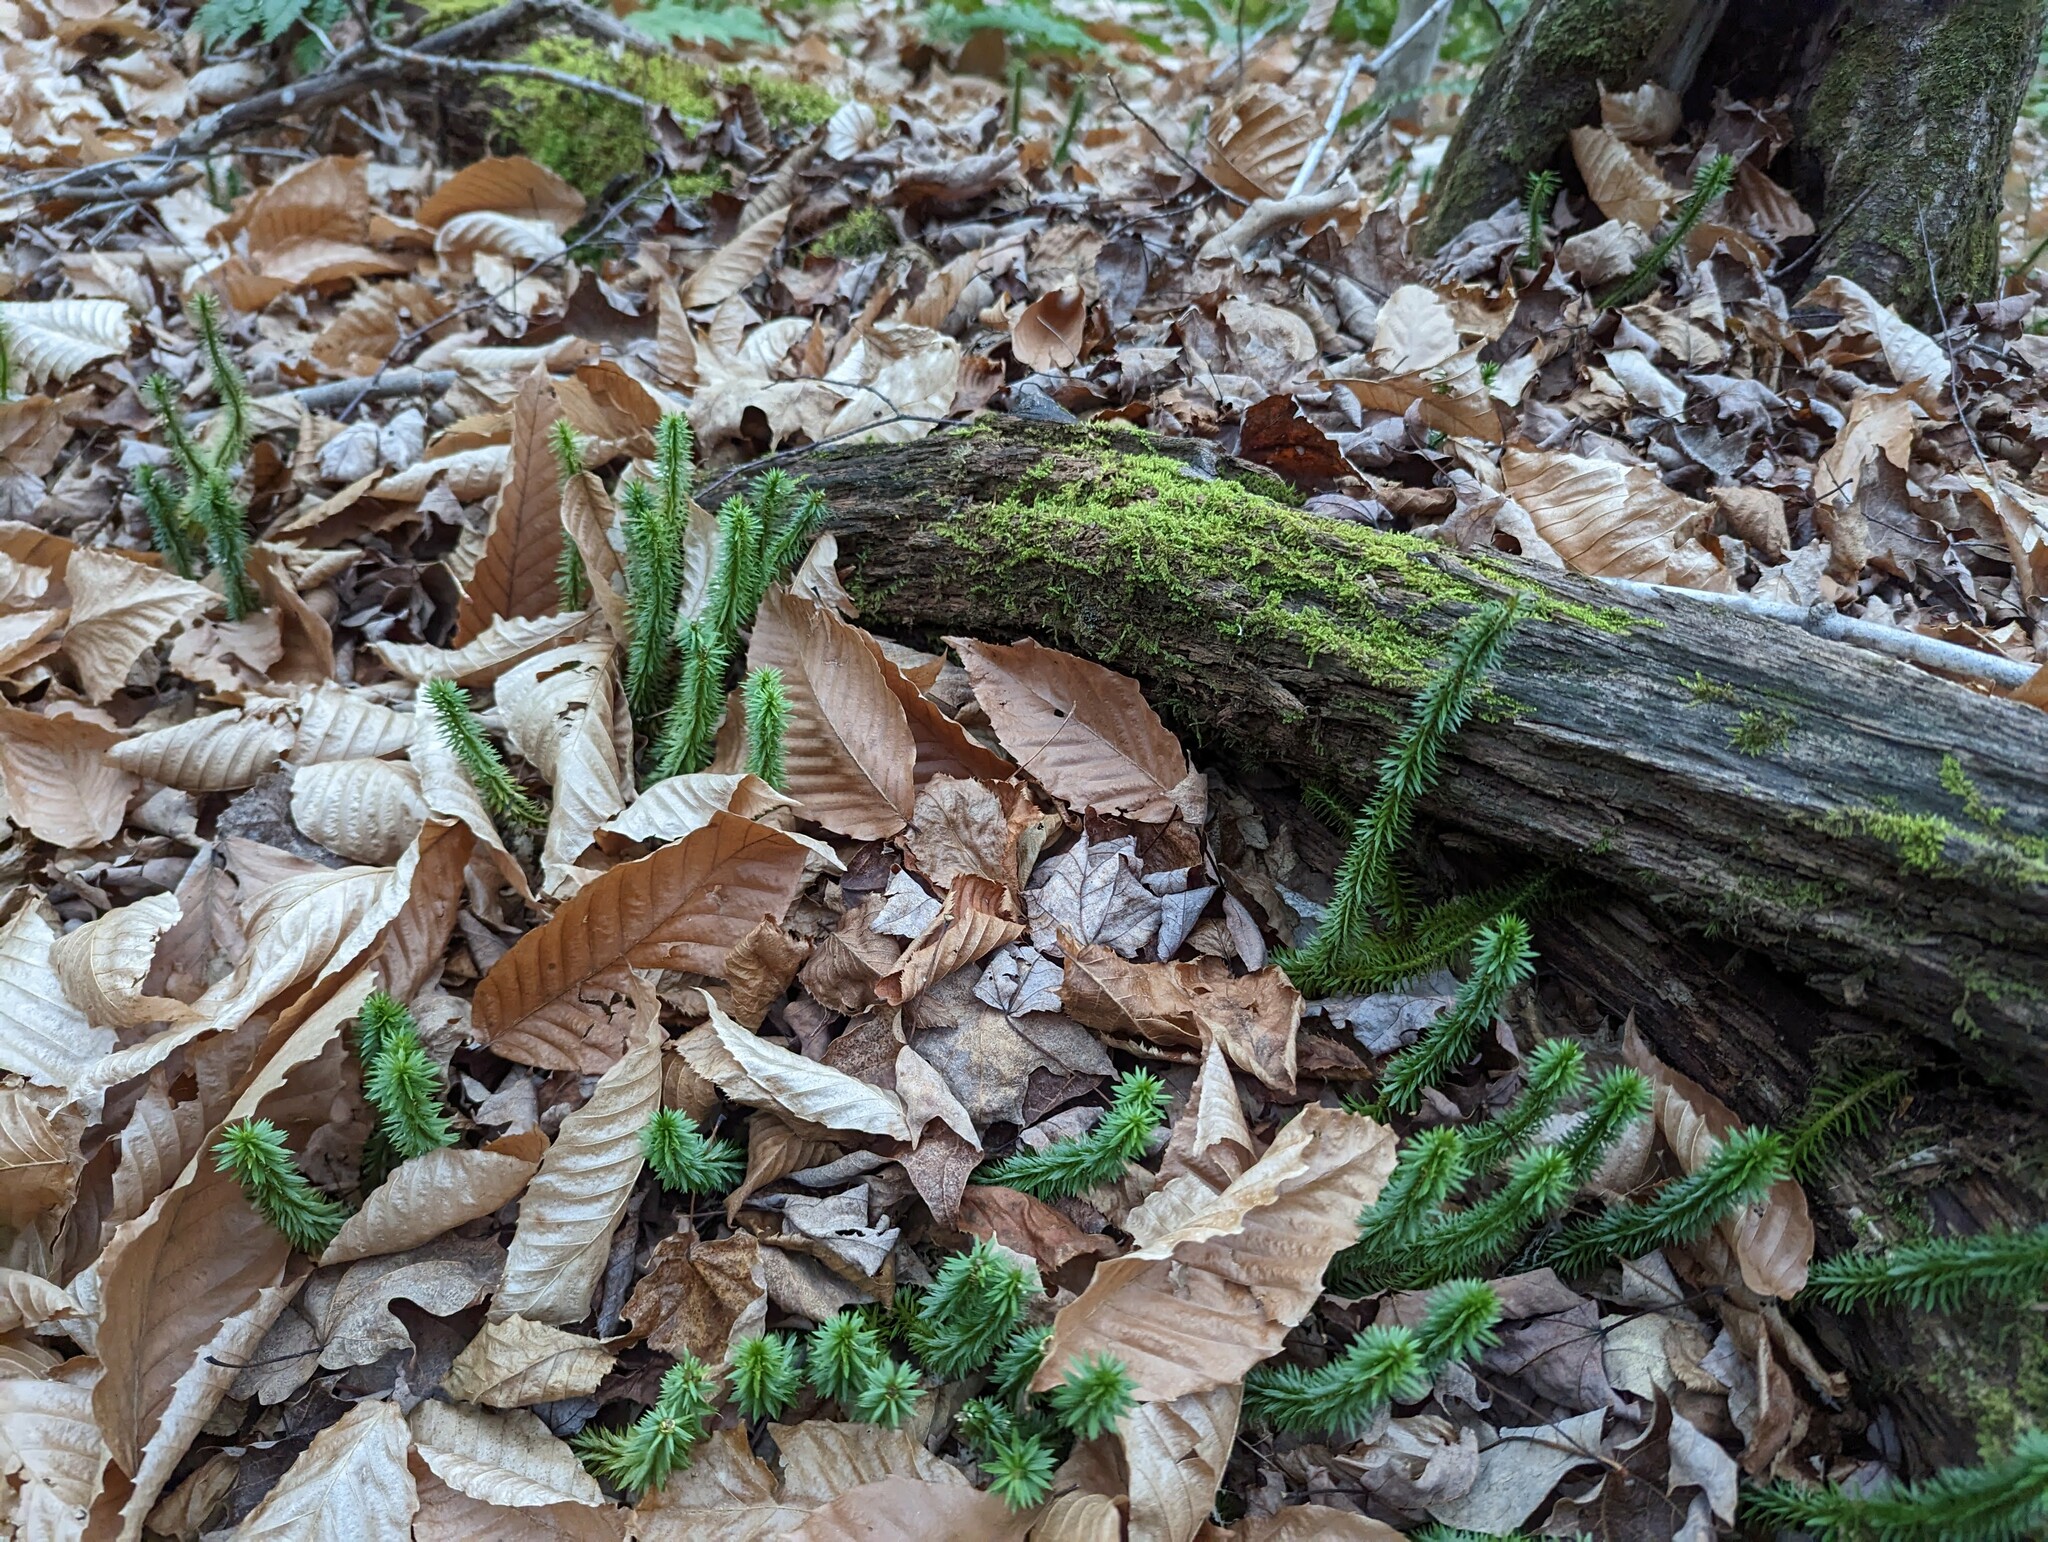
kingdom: Plantae
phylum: Tracheophyta
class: Lycopodiopsida
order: Lycopodiales
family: Lycopodiaceae
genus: Huperzia
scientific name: Huperzia lucidula
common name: Shining clubmoss
